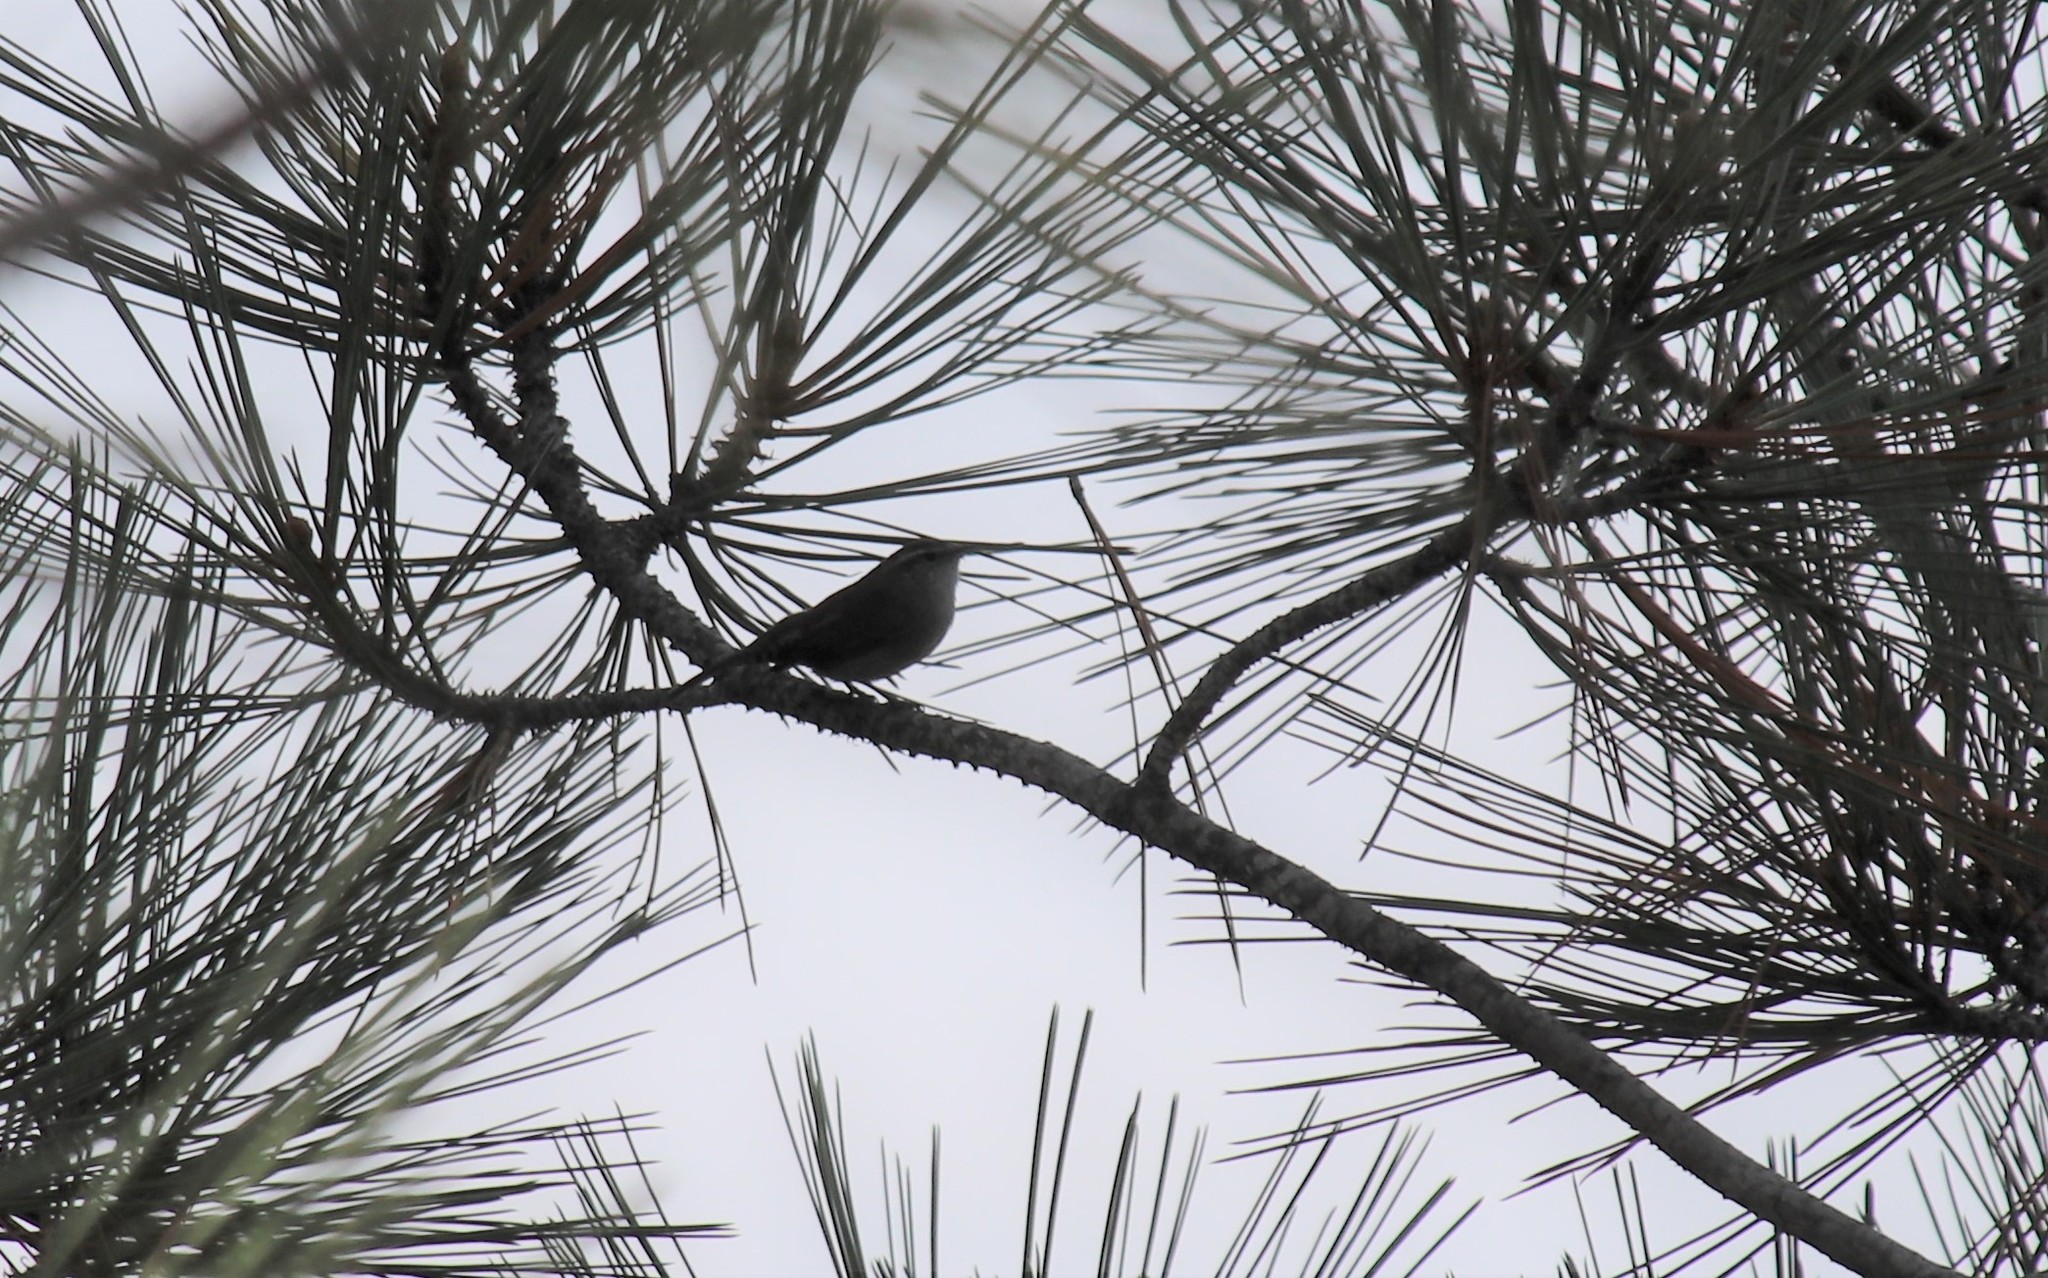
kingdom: Animalia
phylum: Chordata
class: Aves
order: Passeriformes
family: Troglodytidae
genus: Thryomanes
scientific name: Thryomanes bewickii
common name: Bewick's wren
